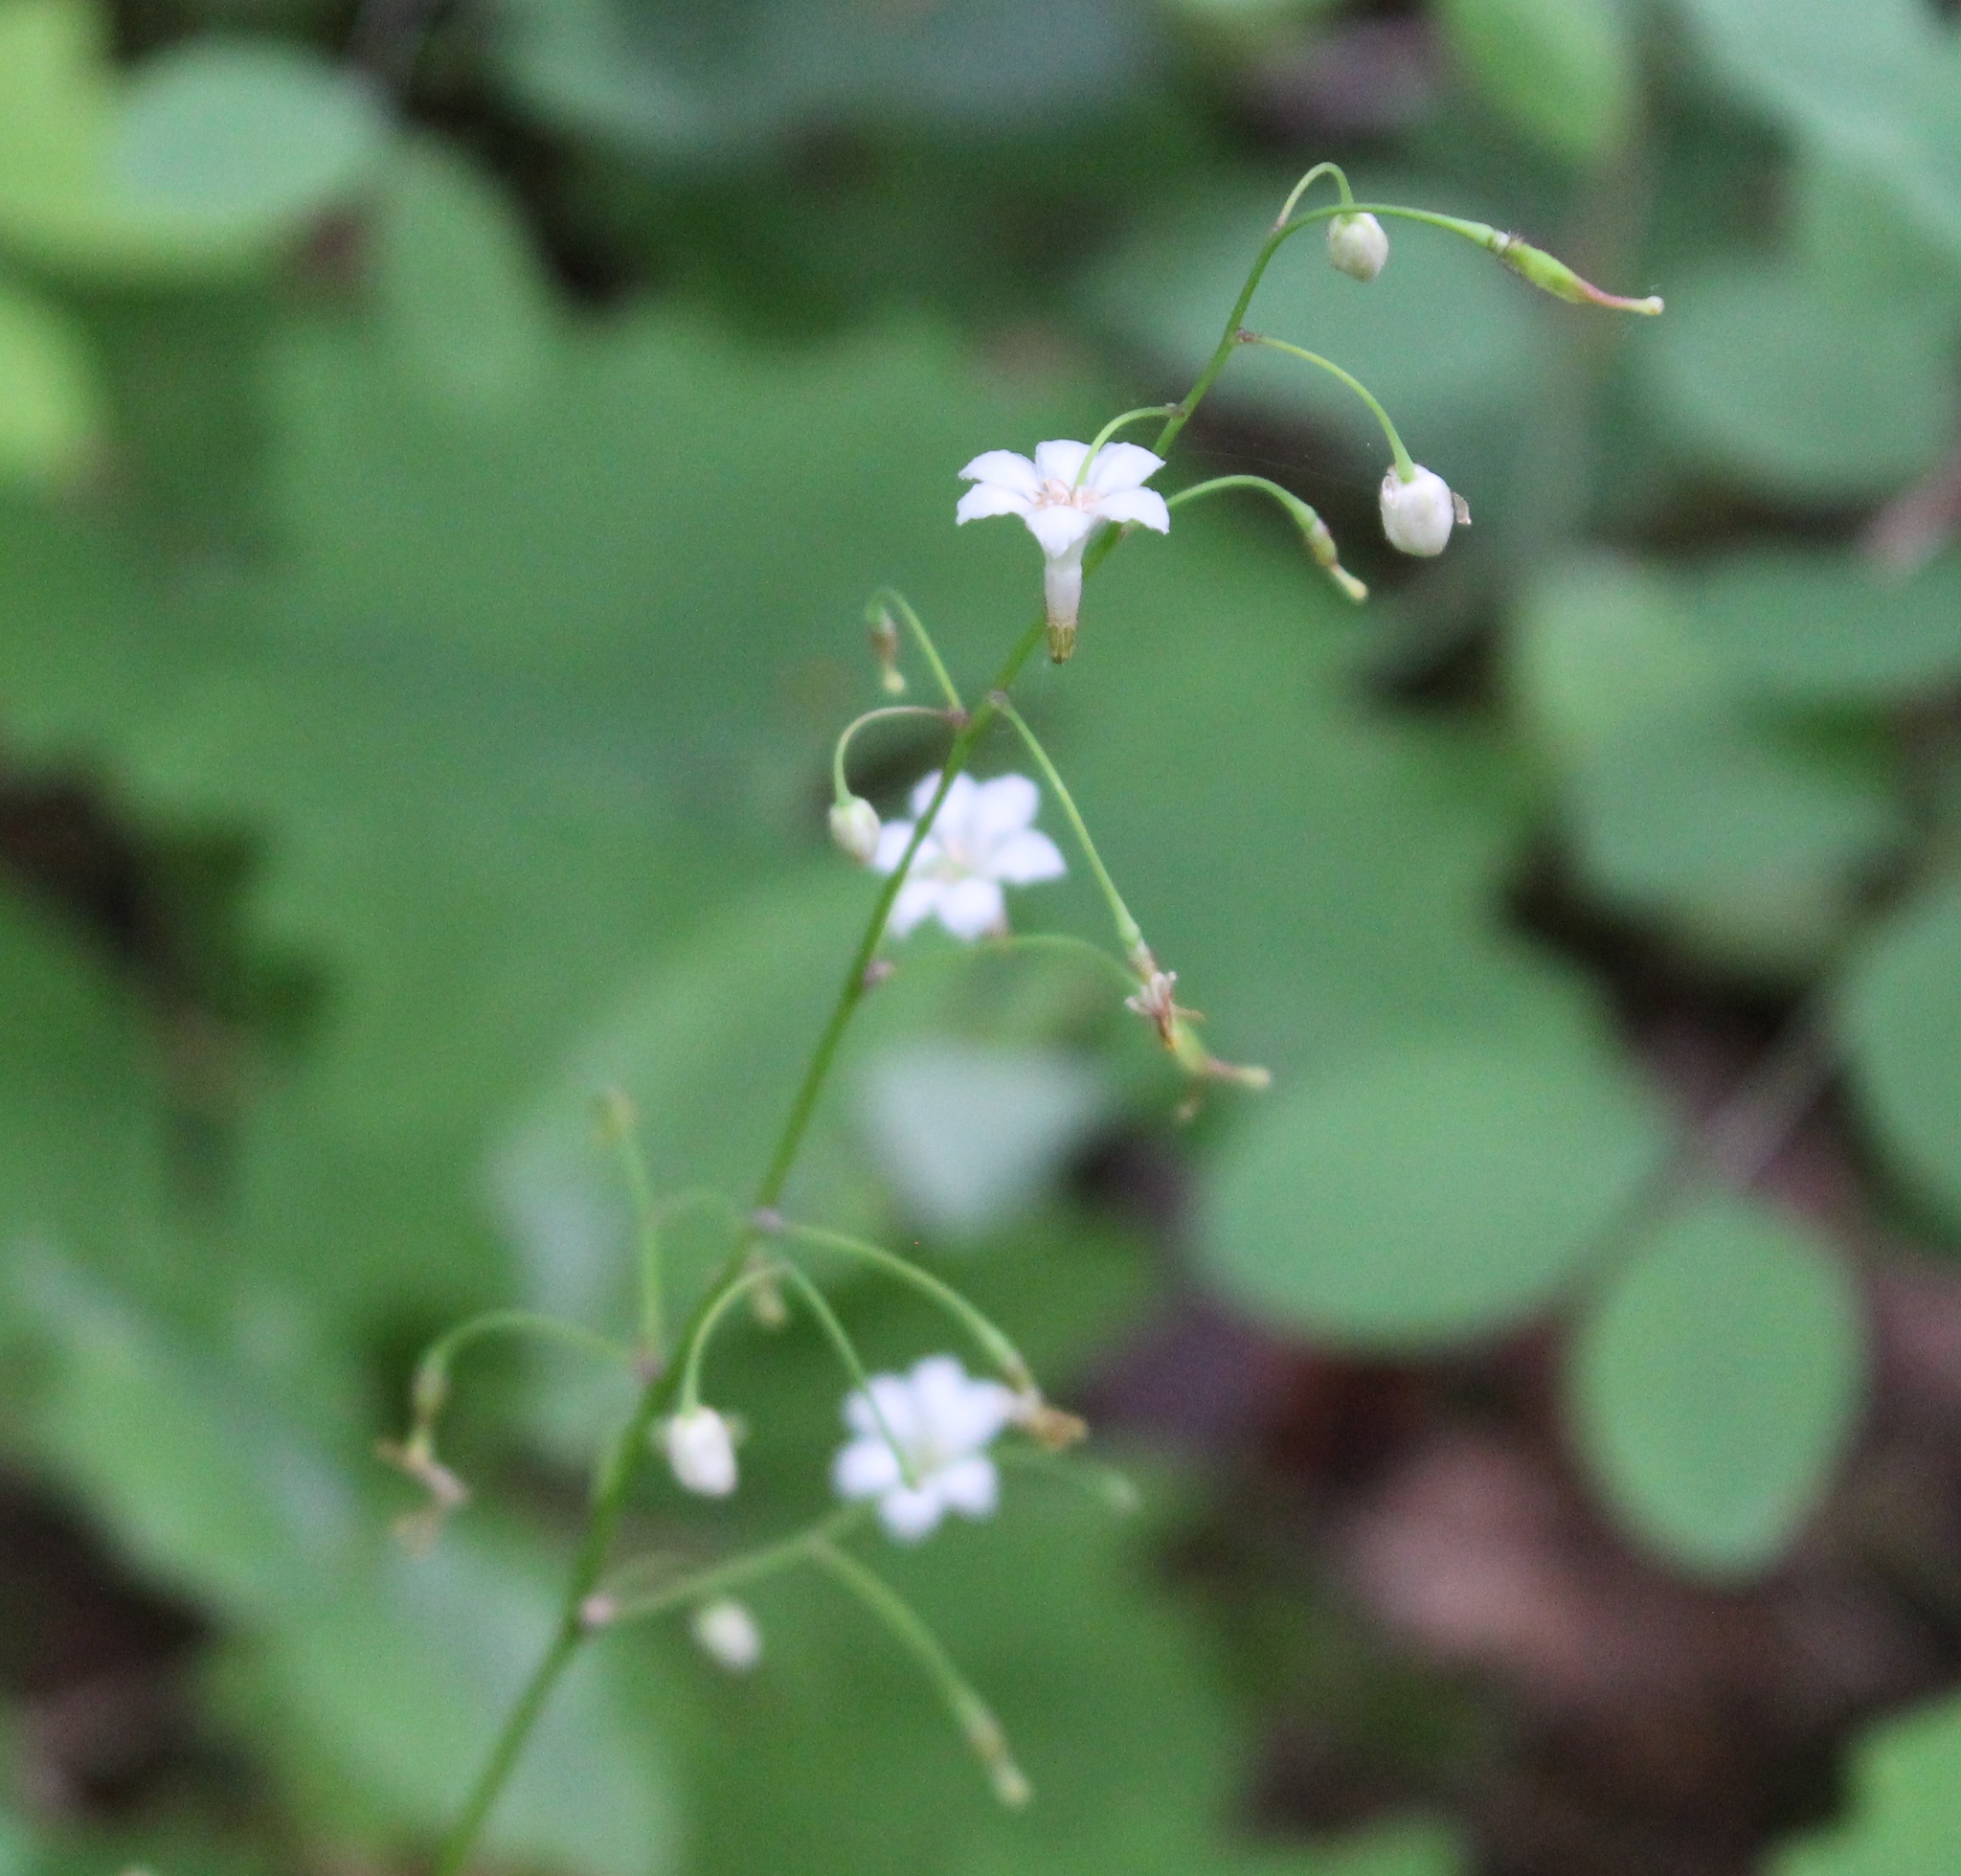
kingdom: Plantae
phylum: Tracheophyta
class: Magnoliopsida
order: Ranunculales
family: Berberidaceae
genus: Vancouveria
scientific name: Vancouveria hexandra
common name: Northern inside-out-flower
